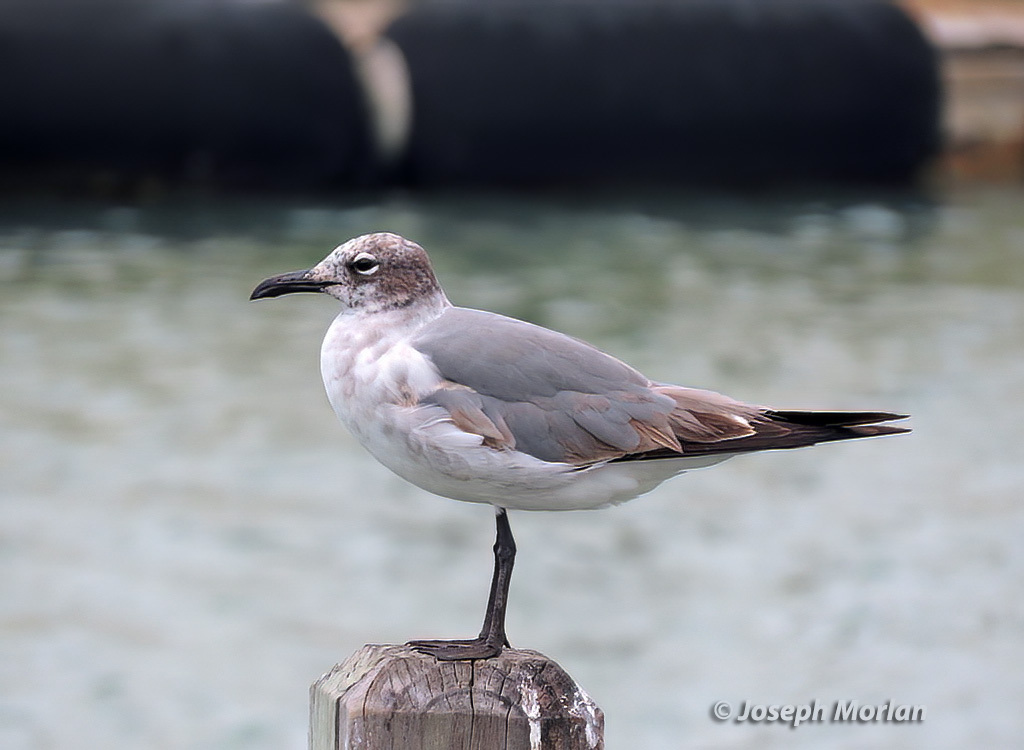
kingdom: Animalia
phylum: Chordata
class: Aves
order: Charadriiformes
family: Laridae
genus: Leucophaeus
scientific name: Leucophaeus atricilla
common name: Laughing gull
